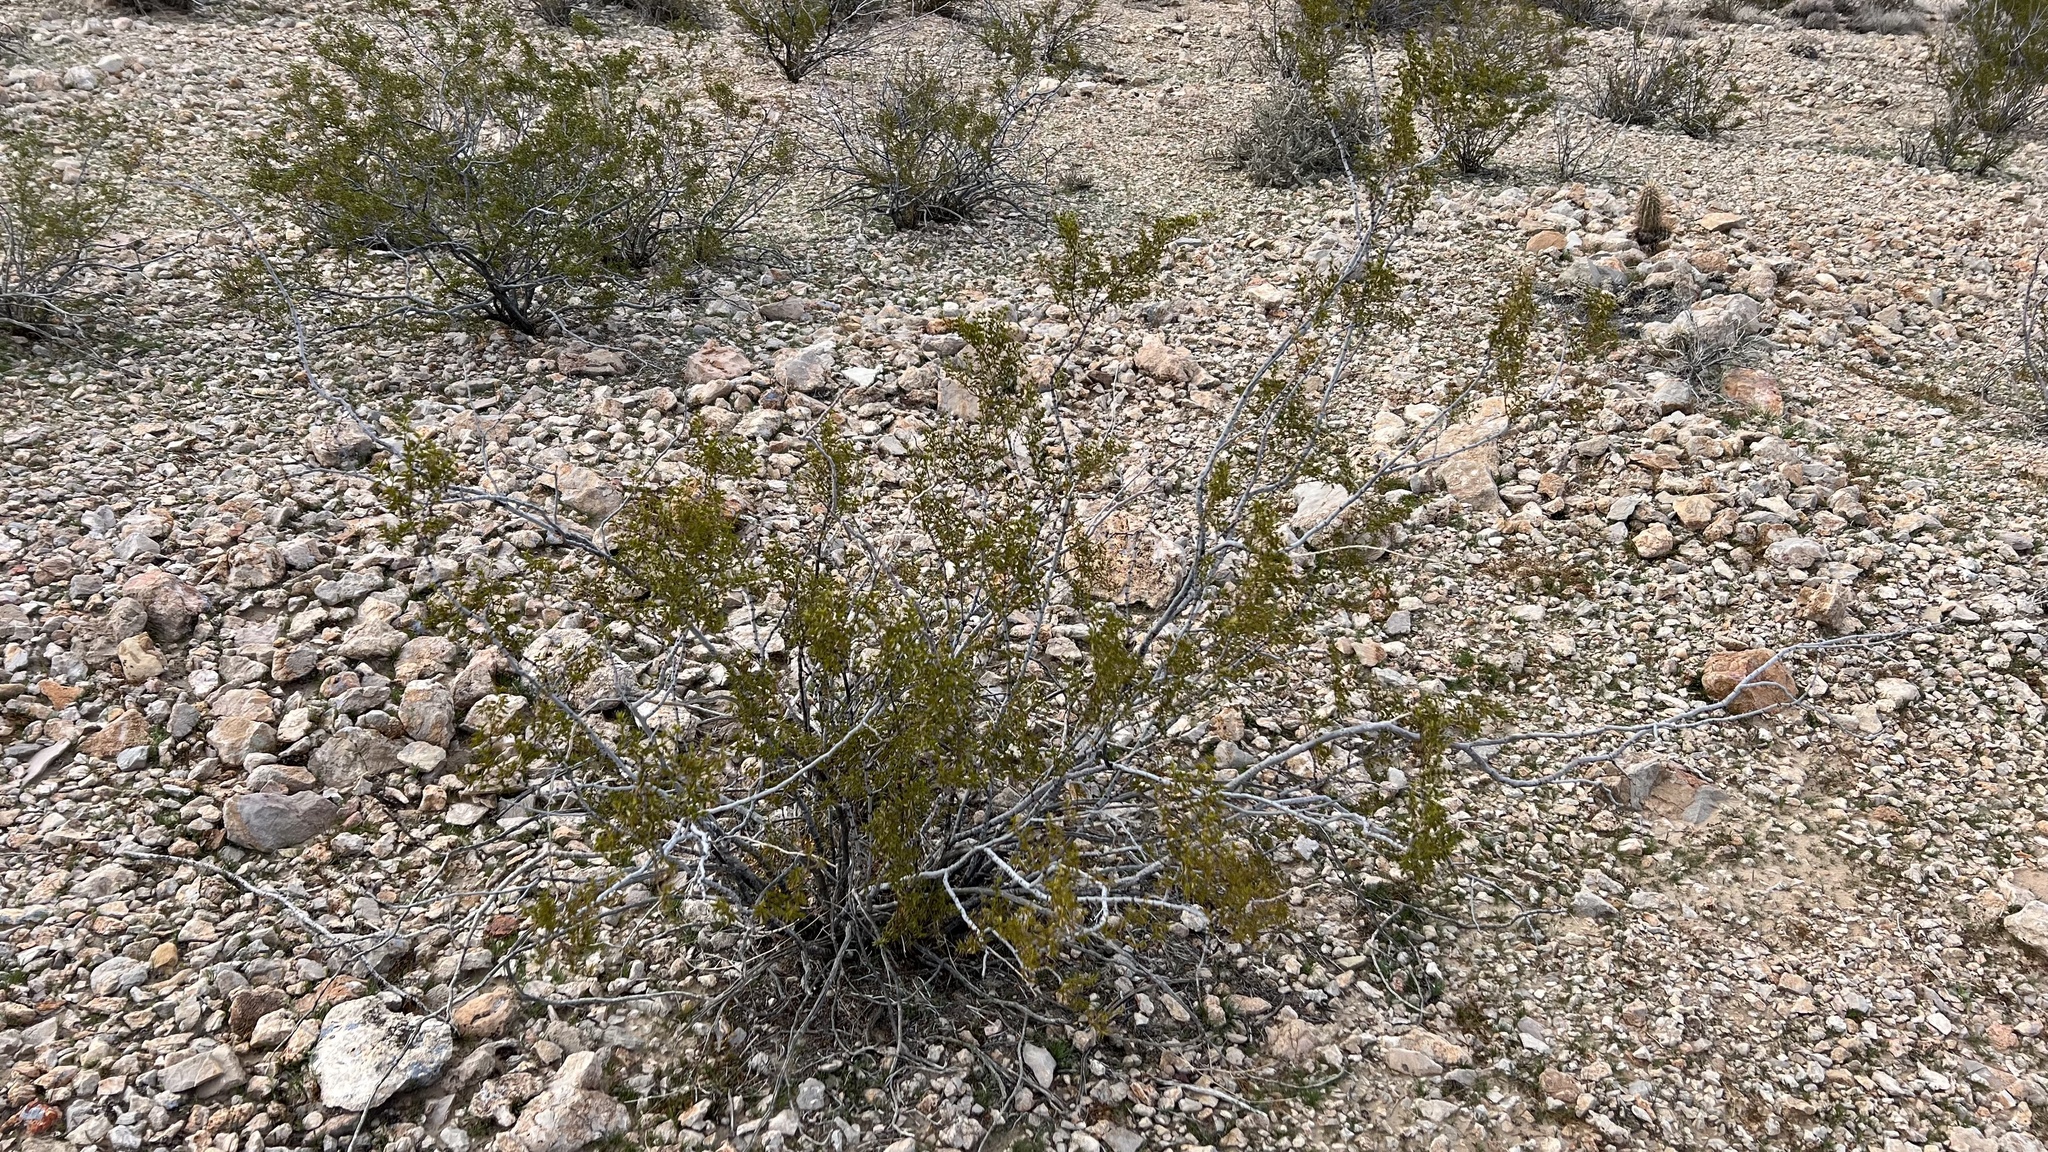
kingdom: Plantae
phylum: Tracheophyta
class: Magnoliopsida
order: Zygophyllales
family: Zygophyllaceae
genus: Larrea
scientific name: Larrea tridentata
